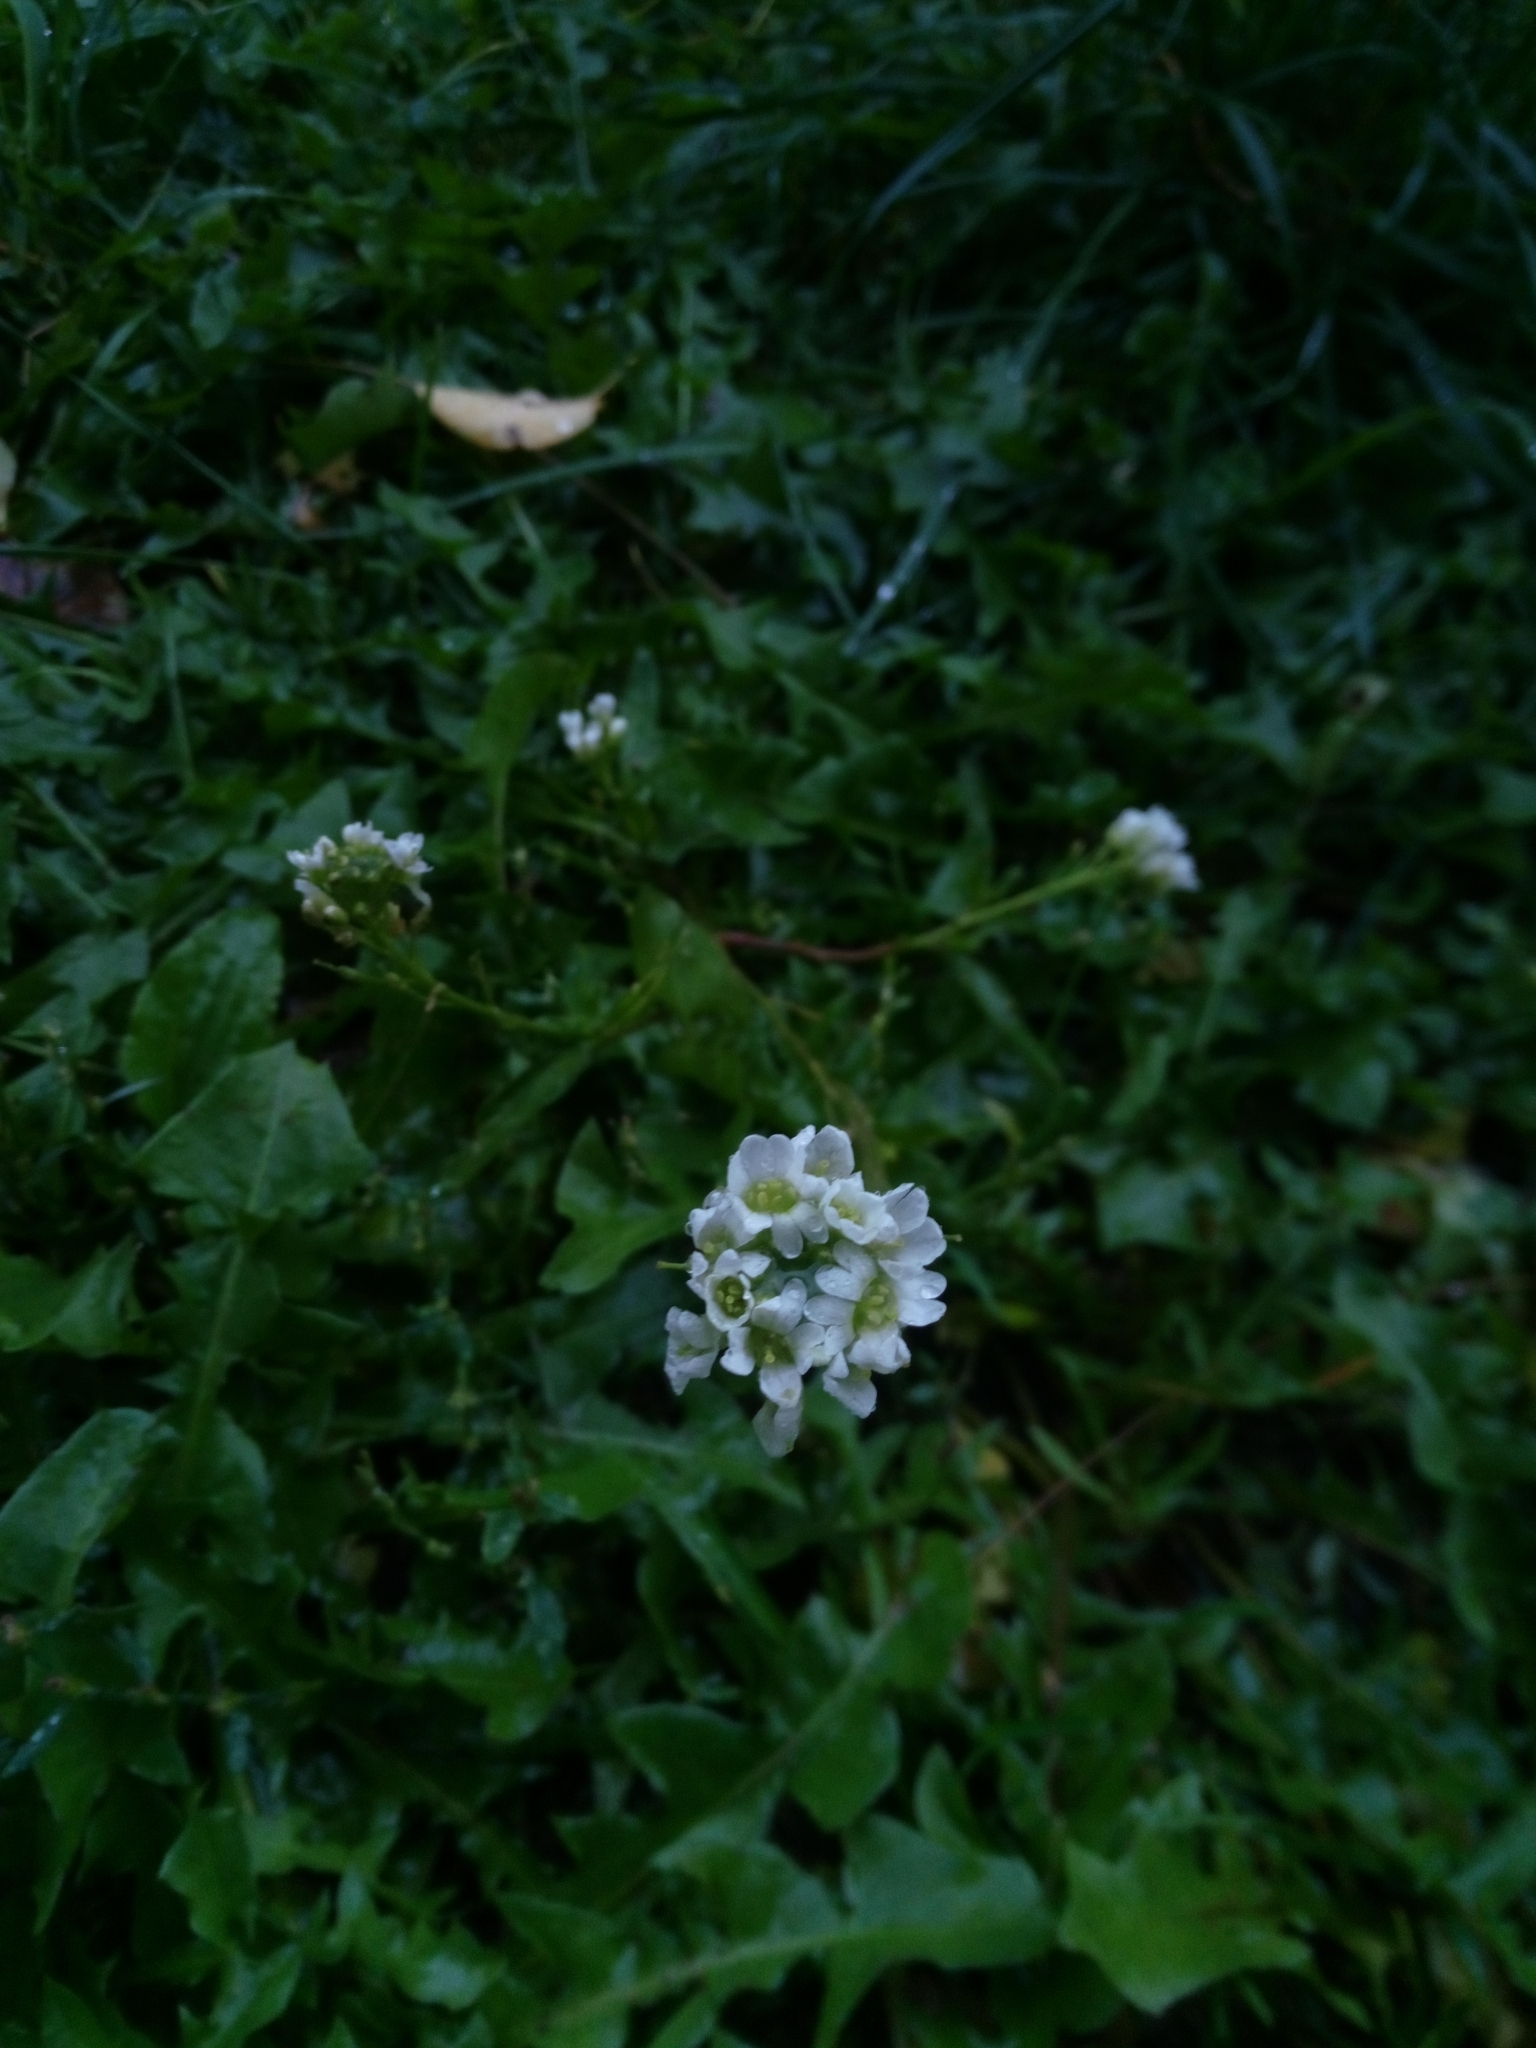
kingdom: Plantae
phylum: Tracheophyta
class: Magnoliopsida
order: Brassicales
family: Brassicaceae
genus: Berteroa
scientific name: Berteroa incana
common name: Hoary alison
